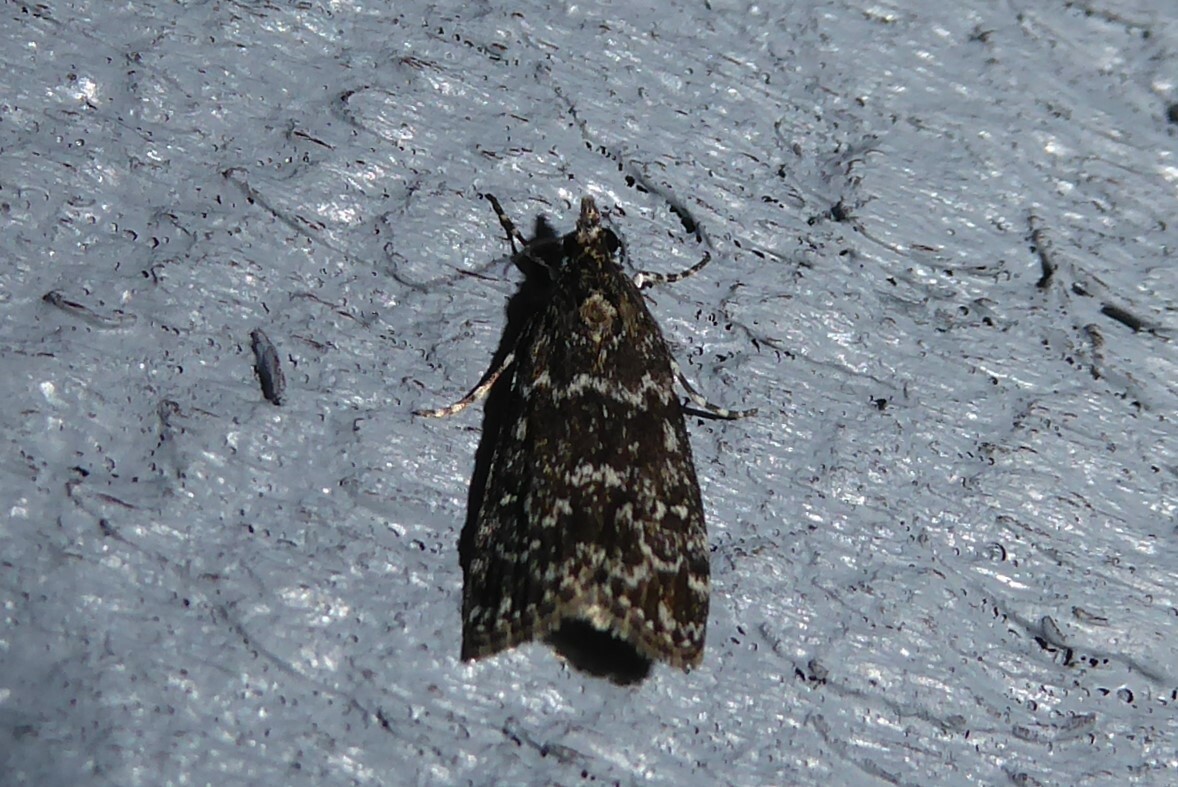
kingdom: Animalia
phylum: Arthropoda
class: Insecta
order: Lepidoptera
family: Crambidae
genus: Eudonia
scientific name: Eudonia philerga
